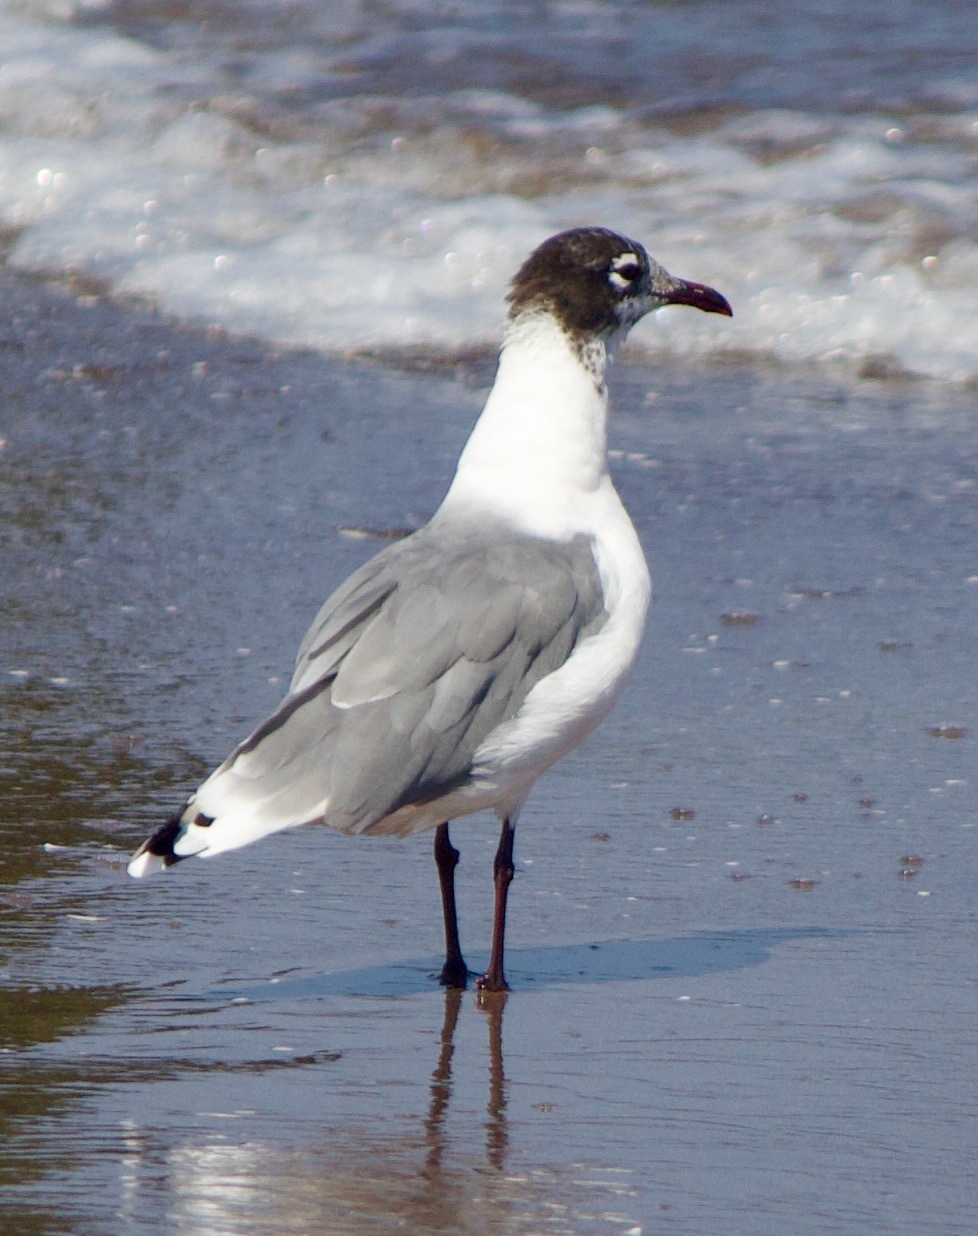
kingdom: Animalia
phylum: Chordata
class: Aves
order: Charadriiformes
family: Laridae
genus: Leucophaeus
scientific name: Leucophaeus pipixcan
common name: Franklin's gull
